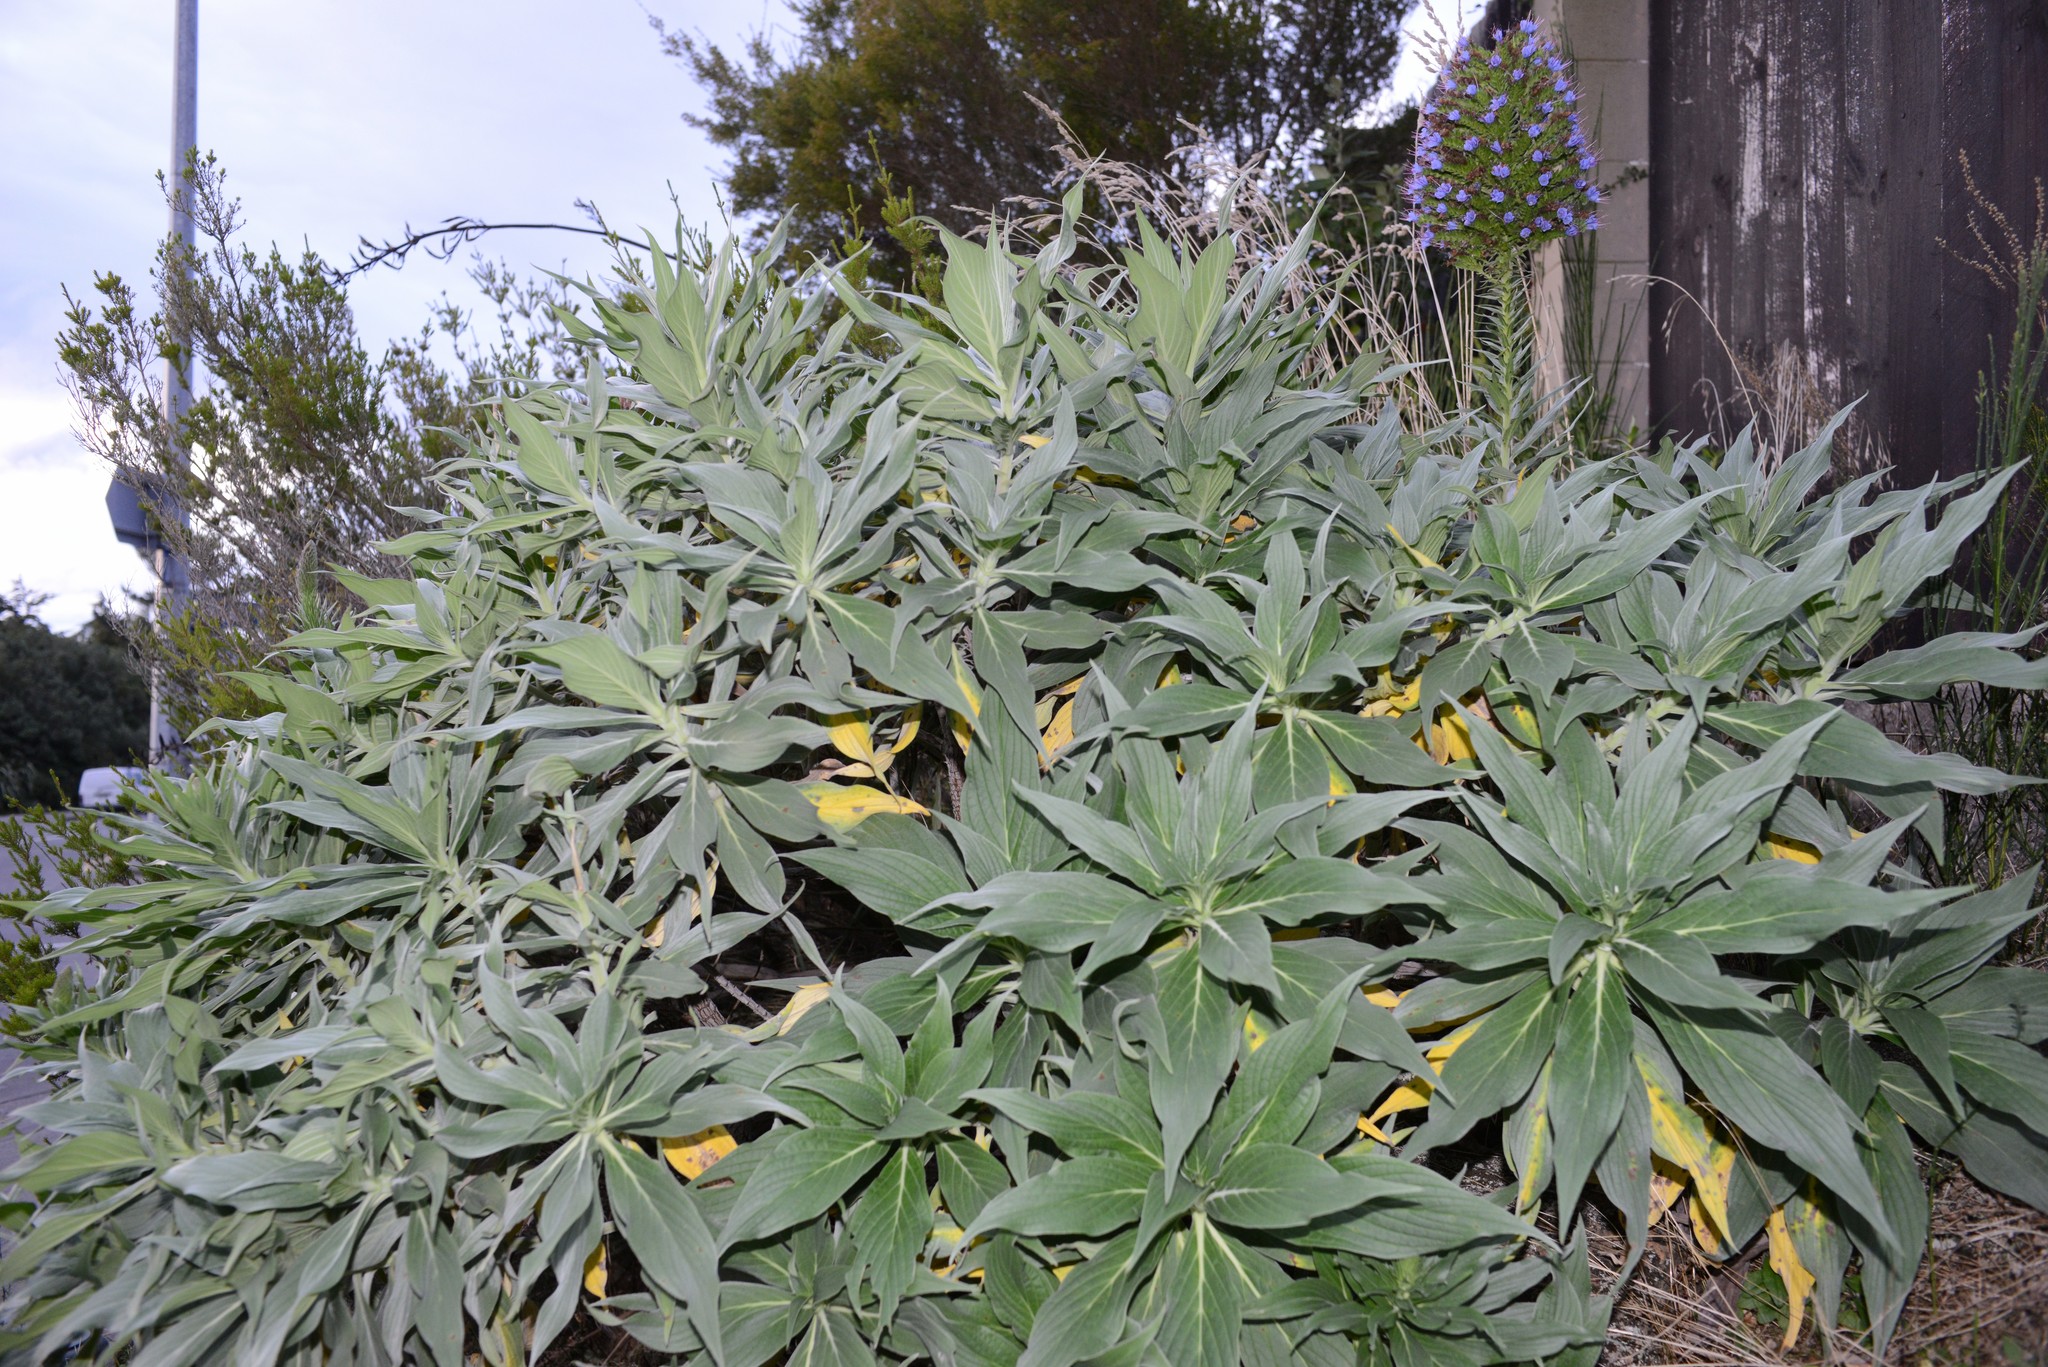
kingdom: Plantae
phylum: Tracheophyta
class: Magnoliopsida
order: Boraginales
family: Boraginaceae
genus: Echium
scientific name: Echium candicans
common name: Pride of madeira
